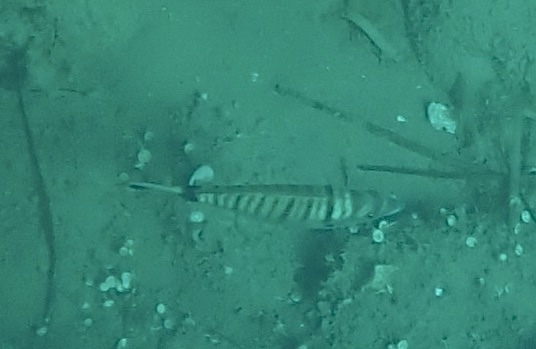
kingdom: Animalia
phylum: Chordata
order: Perciformes
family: Sparidae
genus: Diplodus
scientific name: Diplodus puntazzo
